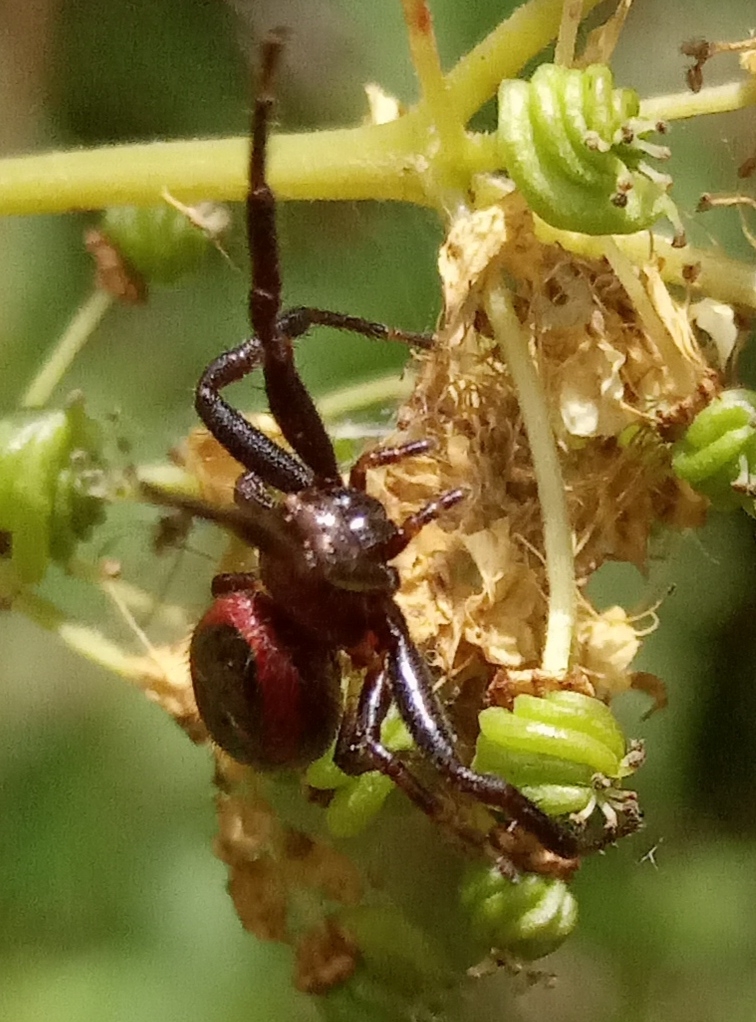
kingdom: Animalia
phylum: Arthropoda
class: Arachnida
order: Araneae
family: Thomisidae
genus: Synema
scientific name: Synema globosum
